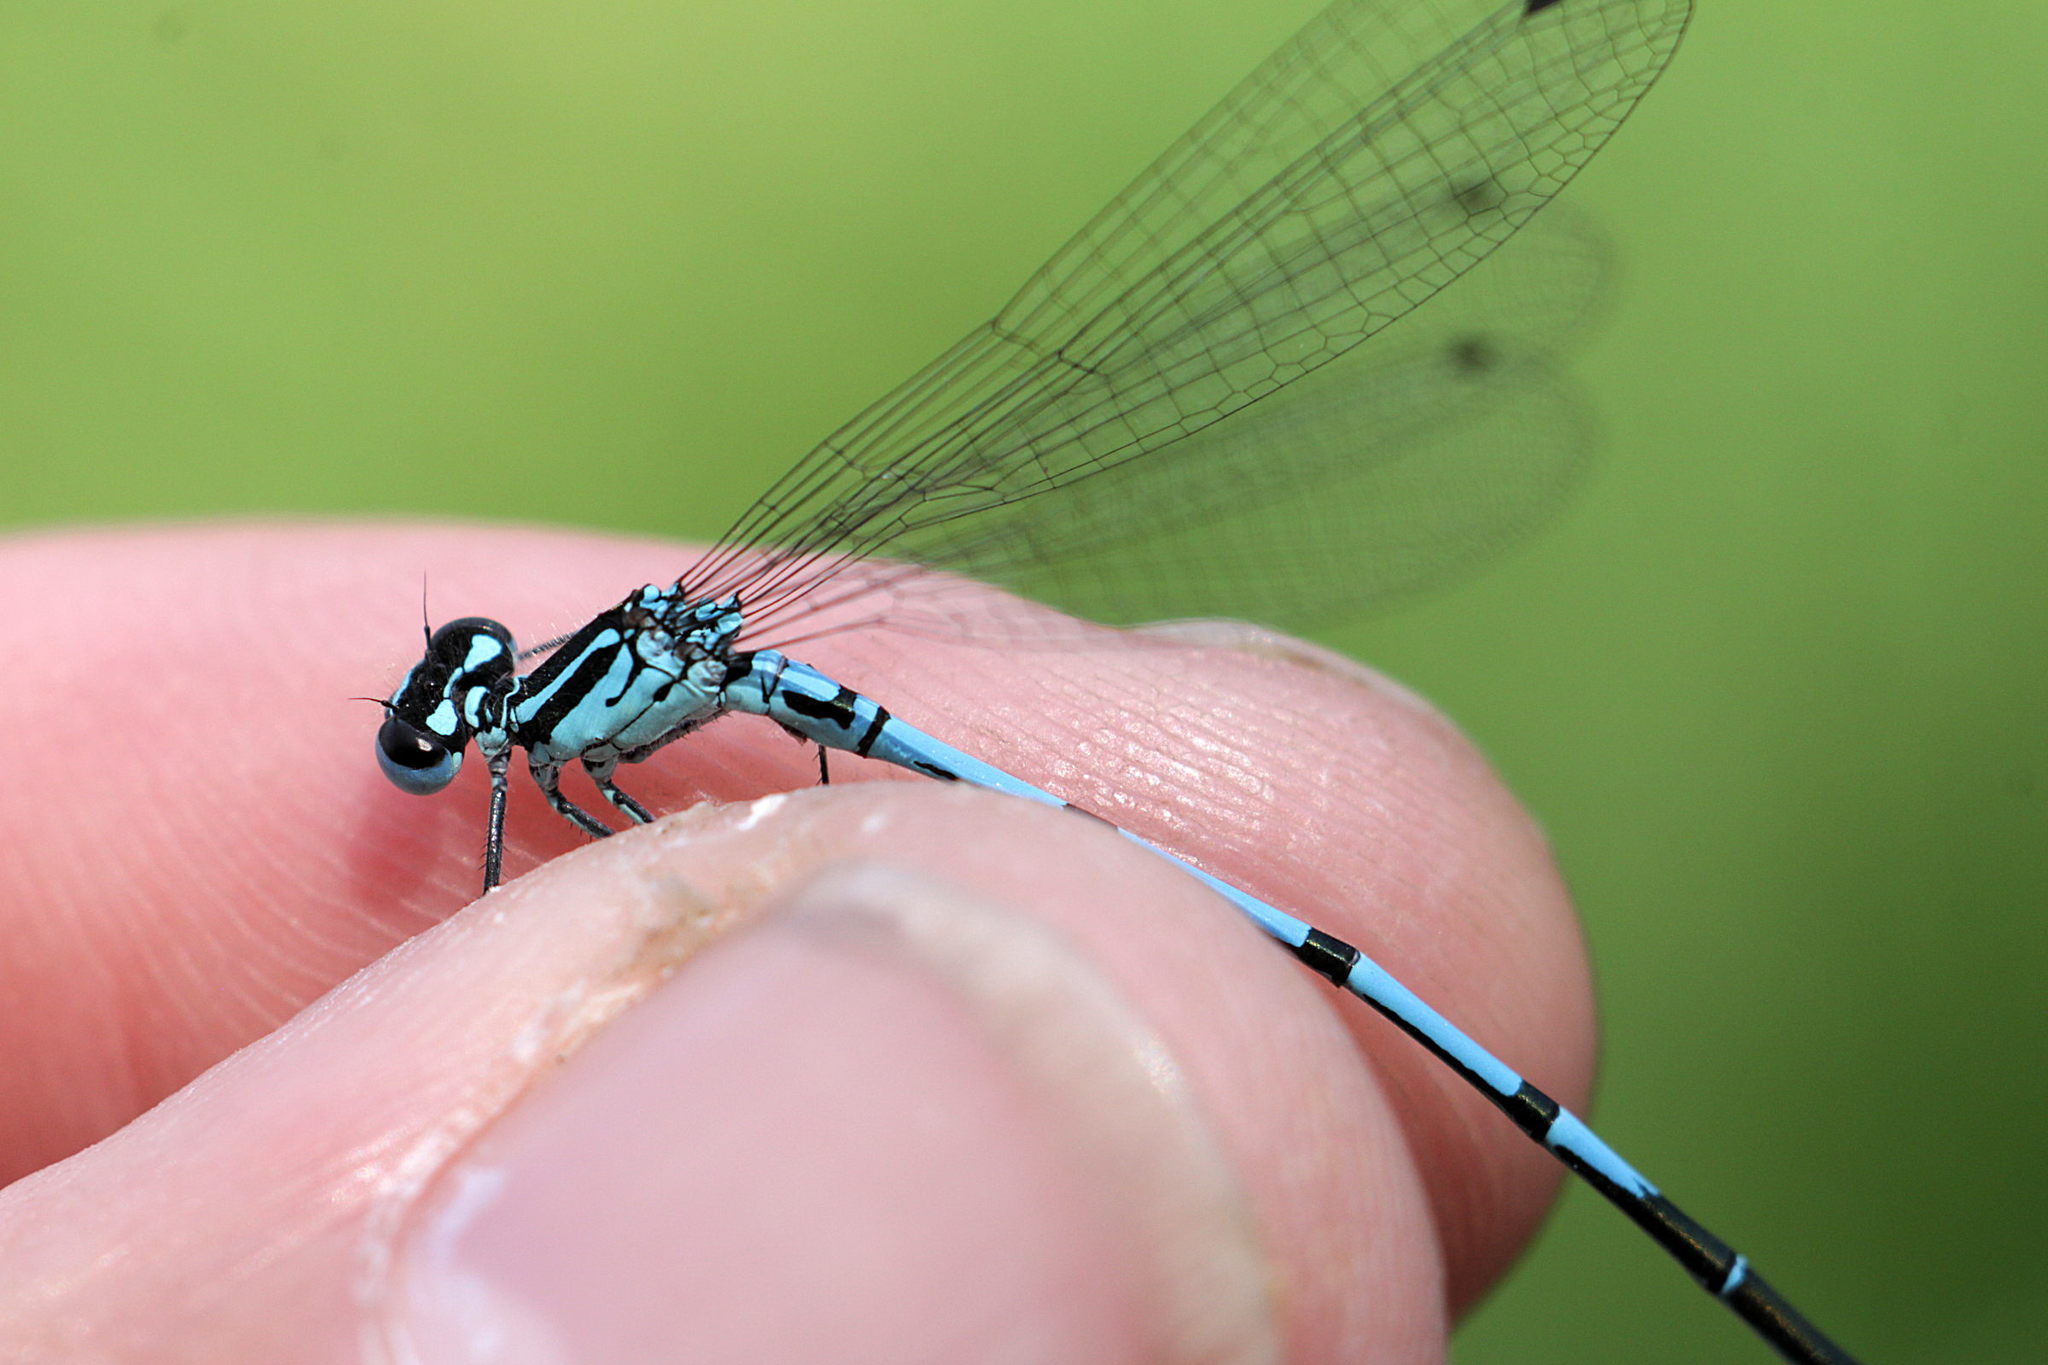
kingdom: Animalia
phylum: Arthropoda
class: Insecta
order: Odonata
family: Coenagrionidae
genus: Coenagrion
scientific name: Coenagrion puella
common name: Azure damselfly
